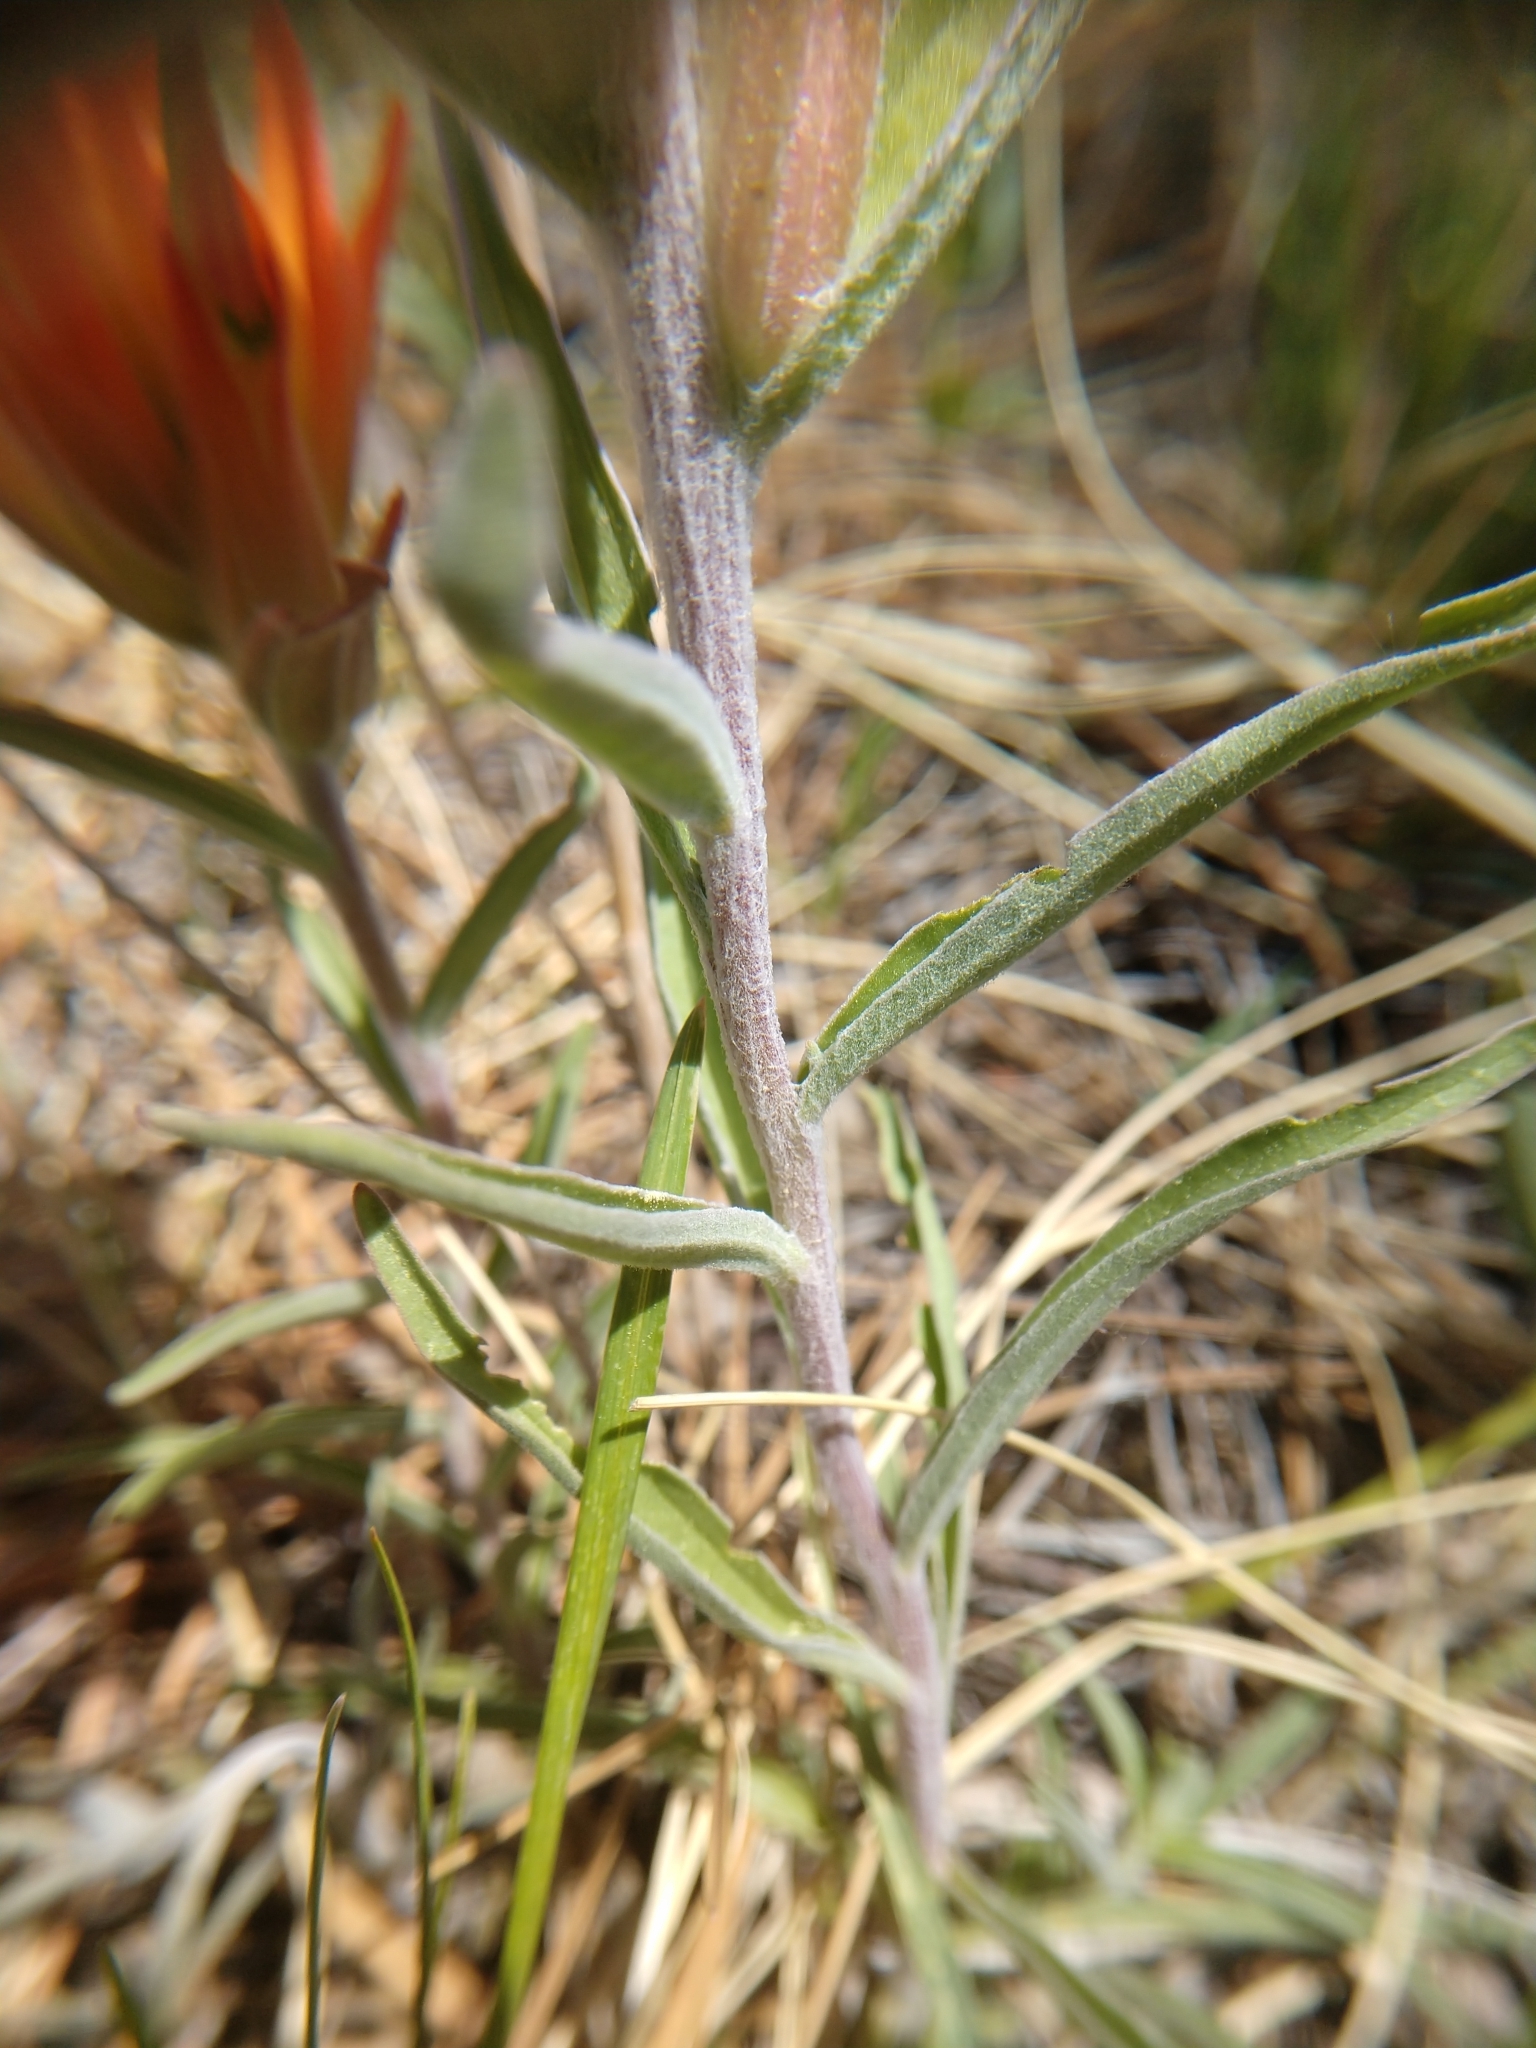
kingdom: Plantae
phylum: Tracheophyta
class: Magnoliopsida
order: Lamiales
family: Orobanchaceae
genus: Castilleja
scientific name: Castilleja integra
